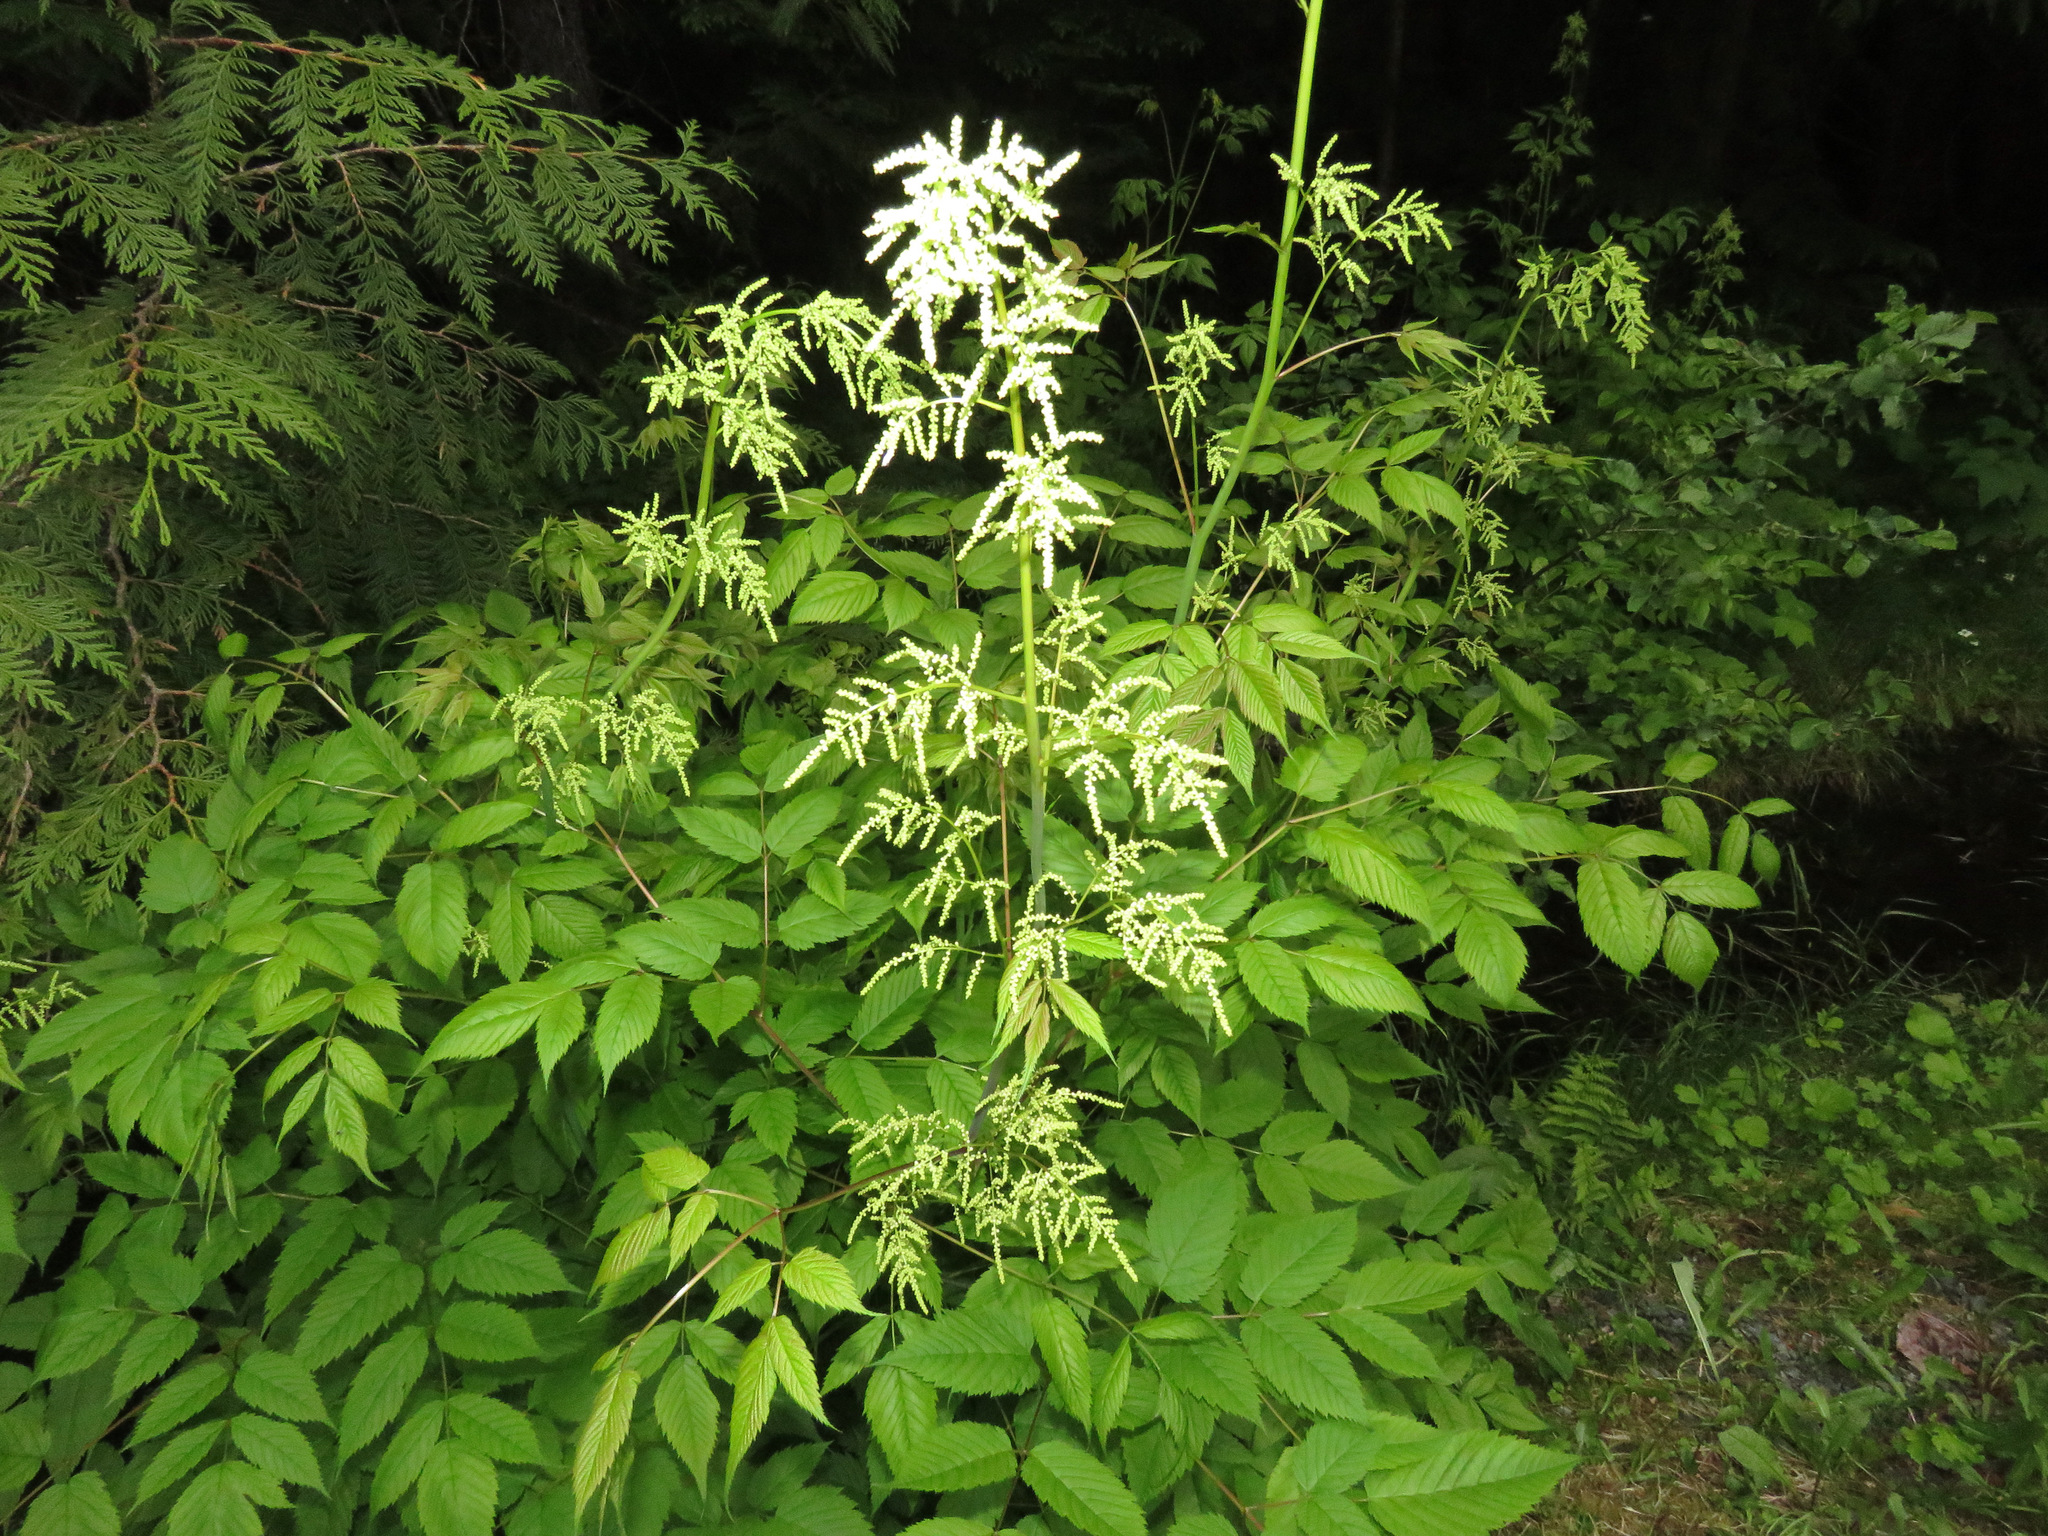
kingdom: Plantae
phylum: Tracheophyta
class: Magnoliopsida
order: Rosales
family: Rosaceae
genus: Aruncus
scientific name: Aruncus dioicus
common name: Buck's-beard
